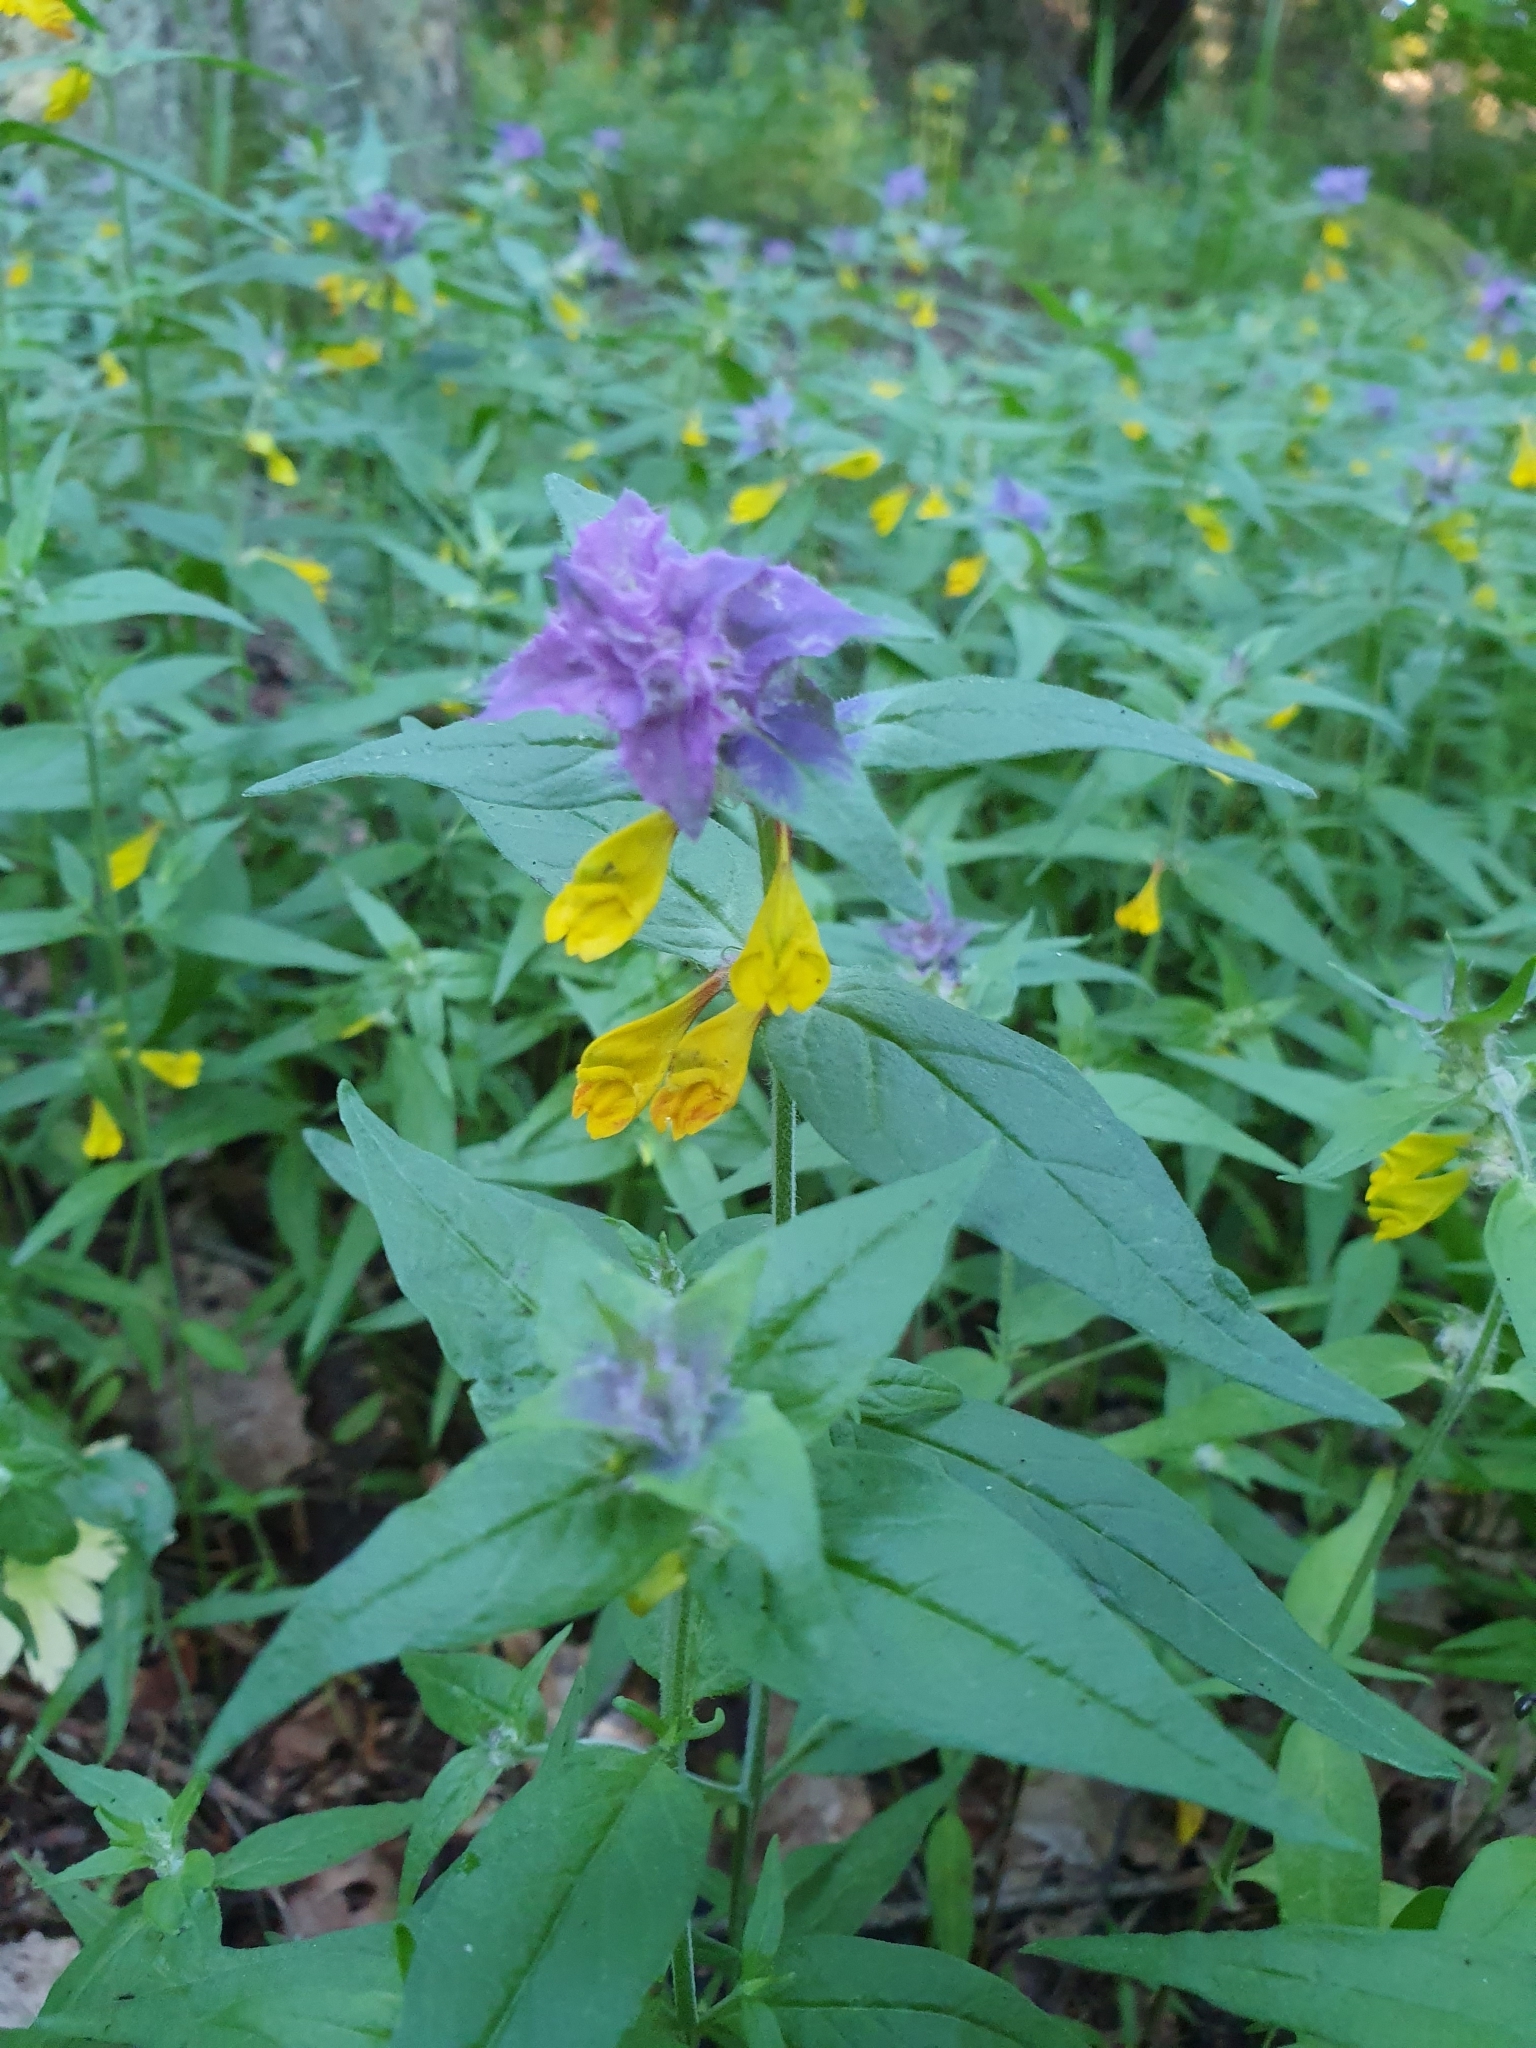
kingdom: Plantae
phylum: Tracheophyta
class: Magnoliopsida
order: Lamiales
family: Orobanchaceae
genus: Melampyrum
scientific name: Melampyrum nemorosum
